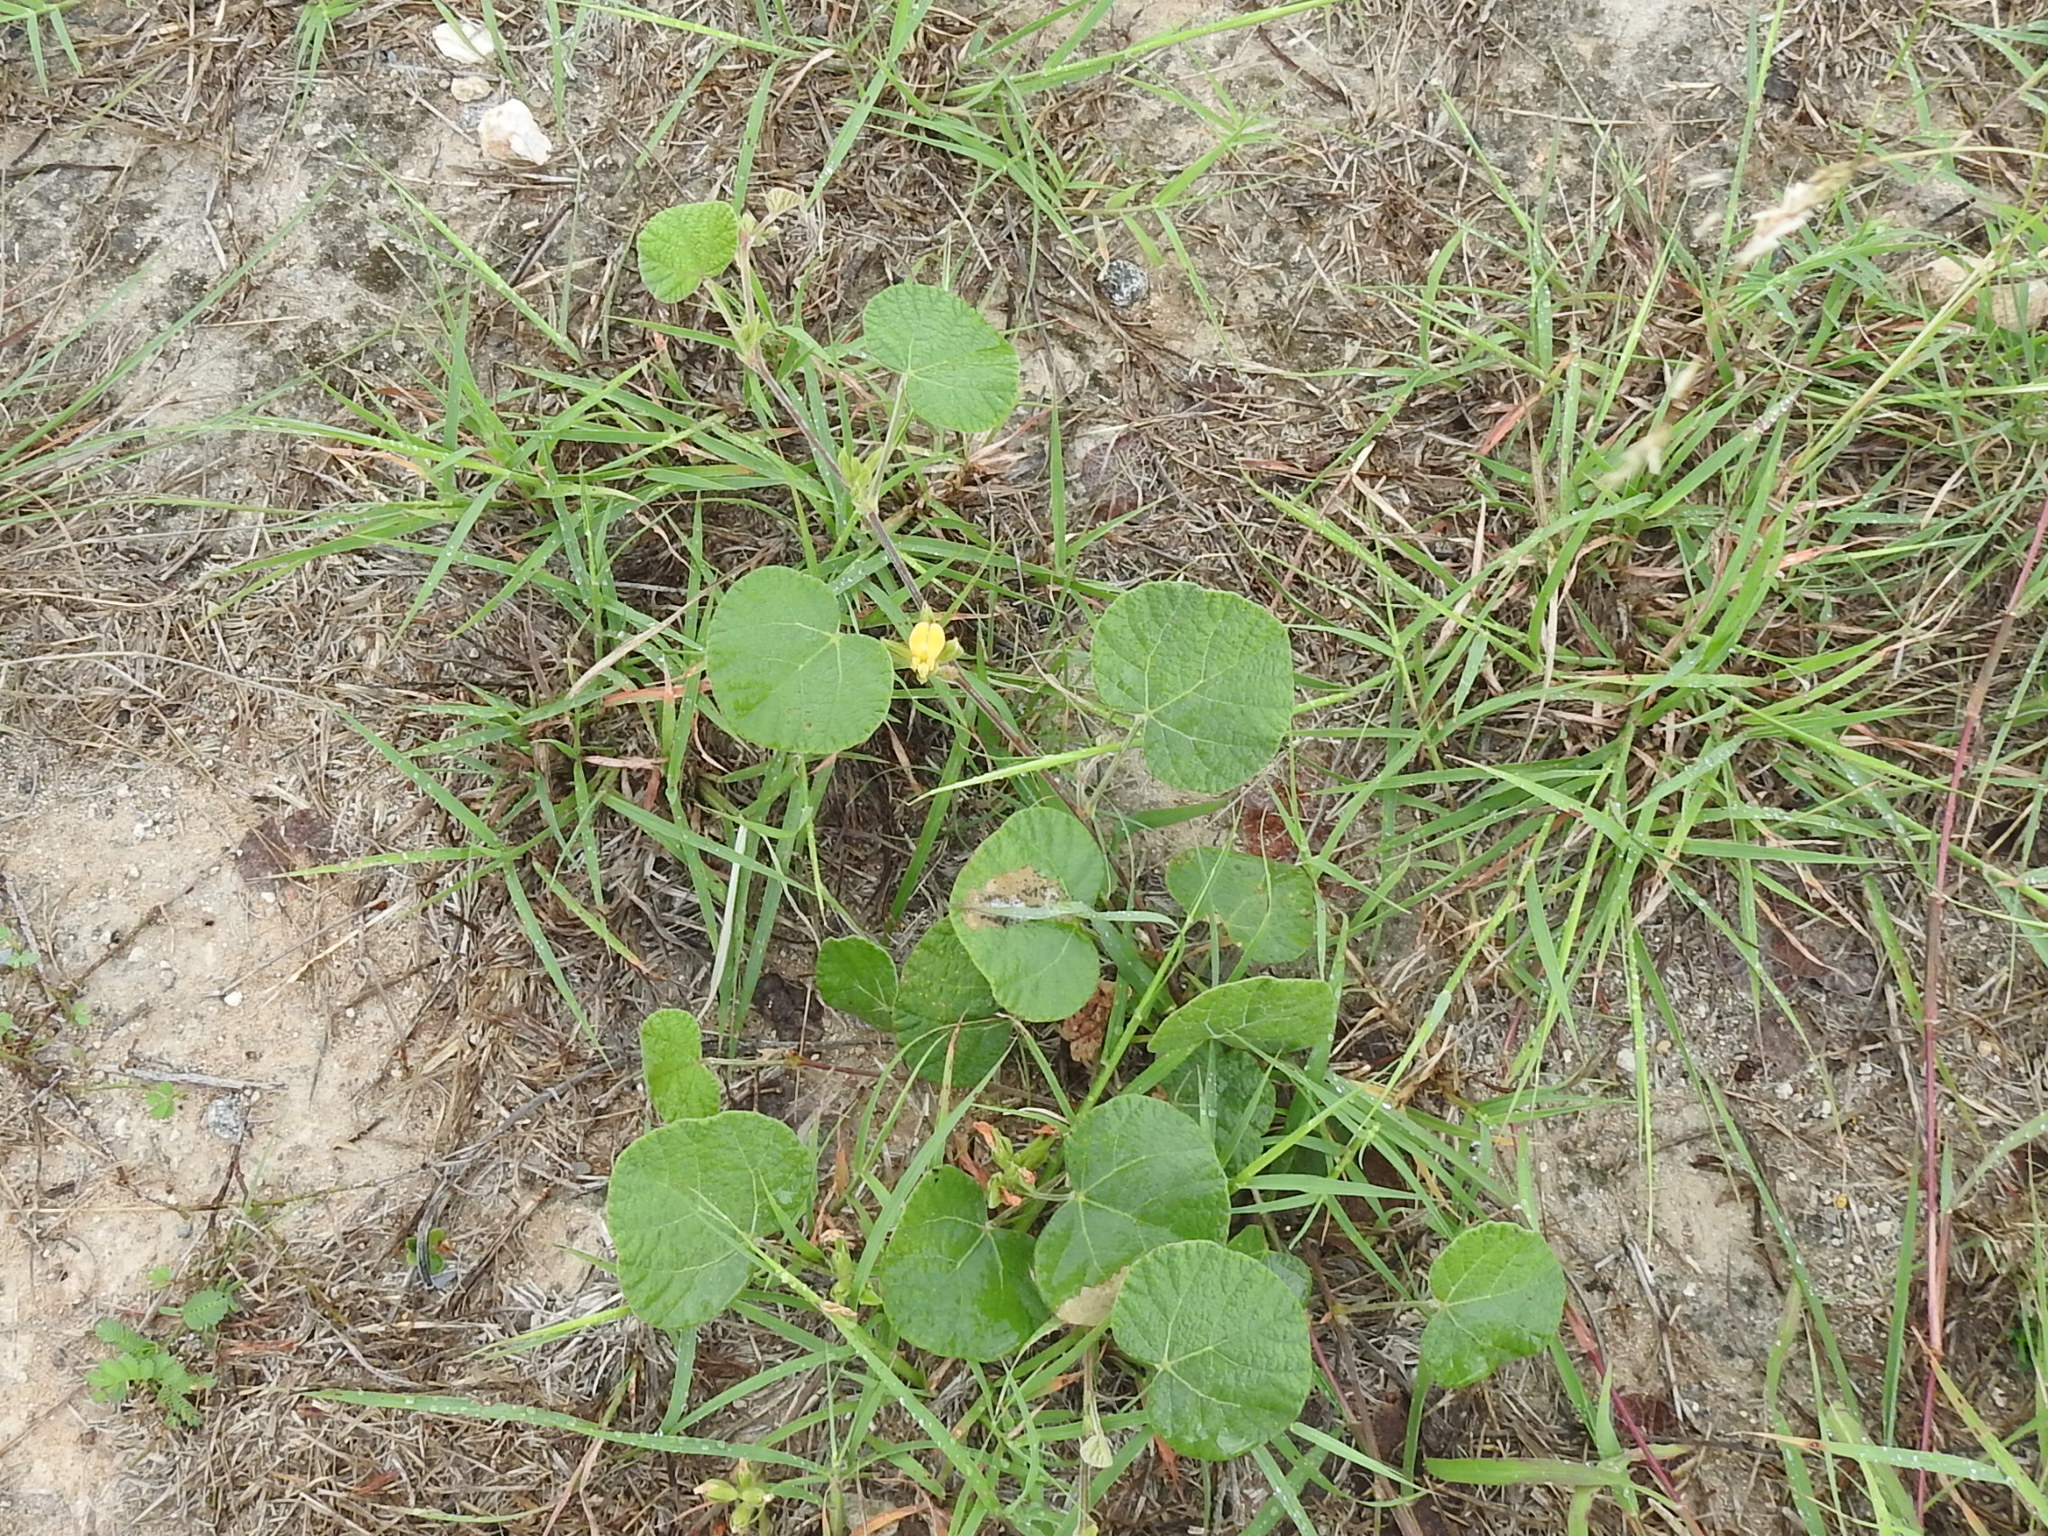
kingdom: Plantae
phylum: Tracheophyta
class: Magnoliopsida
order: Fabales
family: Fabaceae
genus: Rhynchosia
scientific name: Rhynchosia americana
